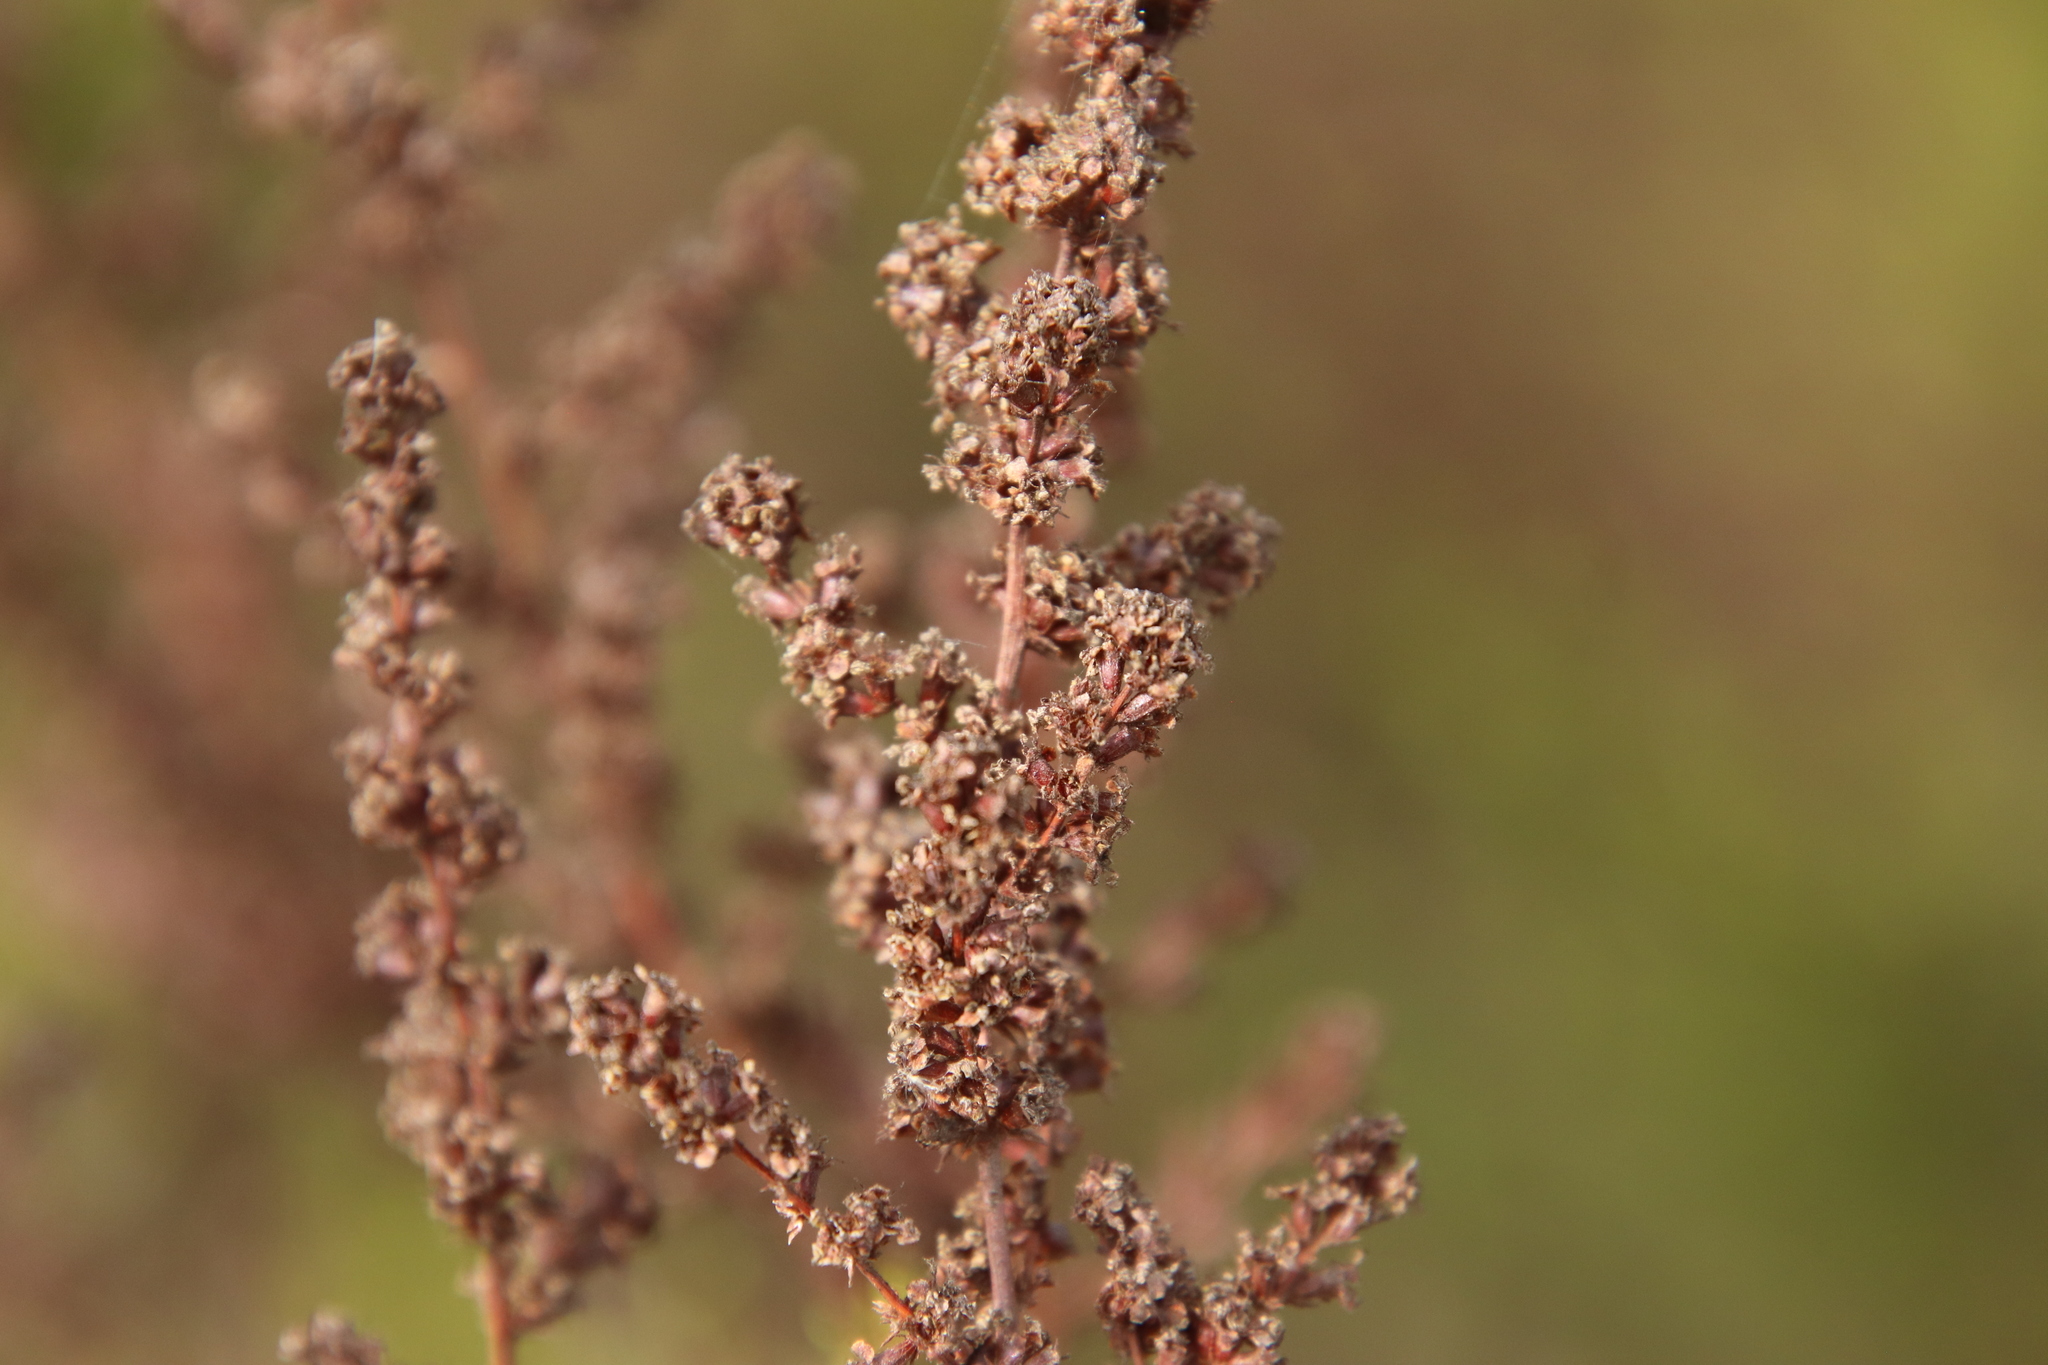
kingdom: Plantae
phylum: Tracheophyta
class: Magnoliopsida
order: Rosales
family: Rosaceae
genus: Adenostoma
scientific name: Adenostoma fasciculatum
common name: Chamise
